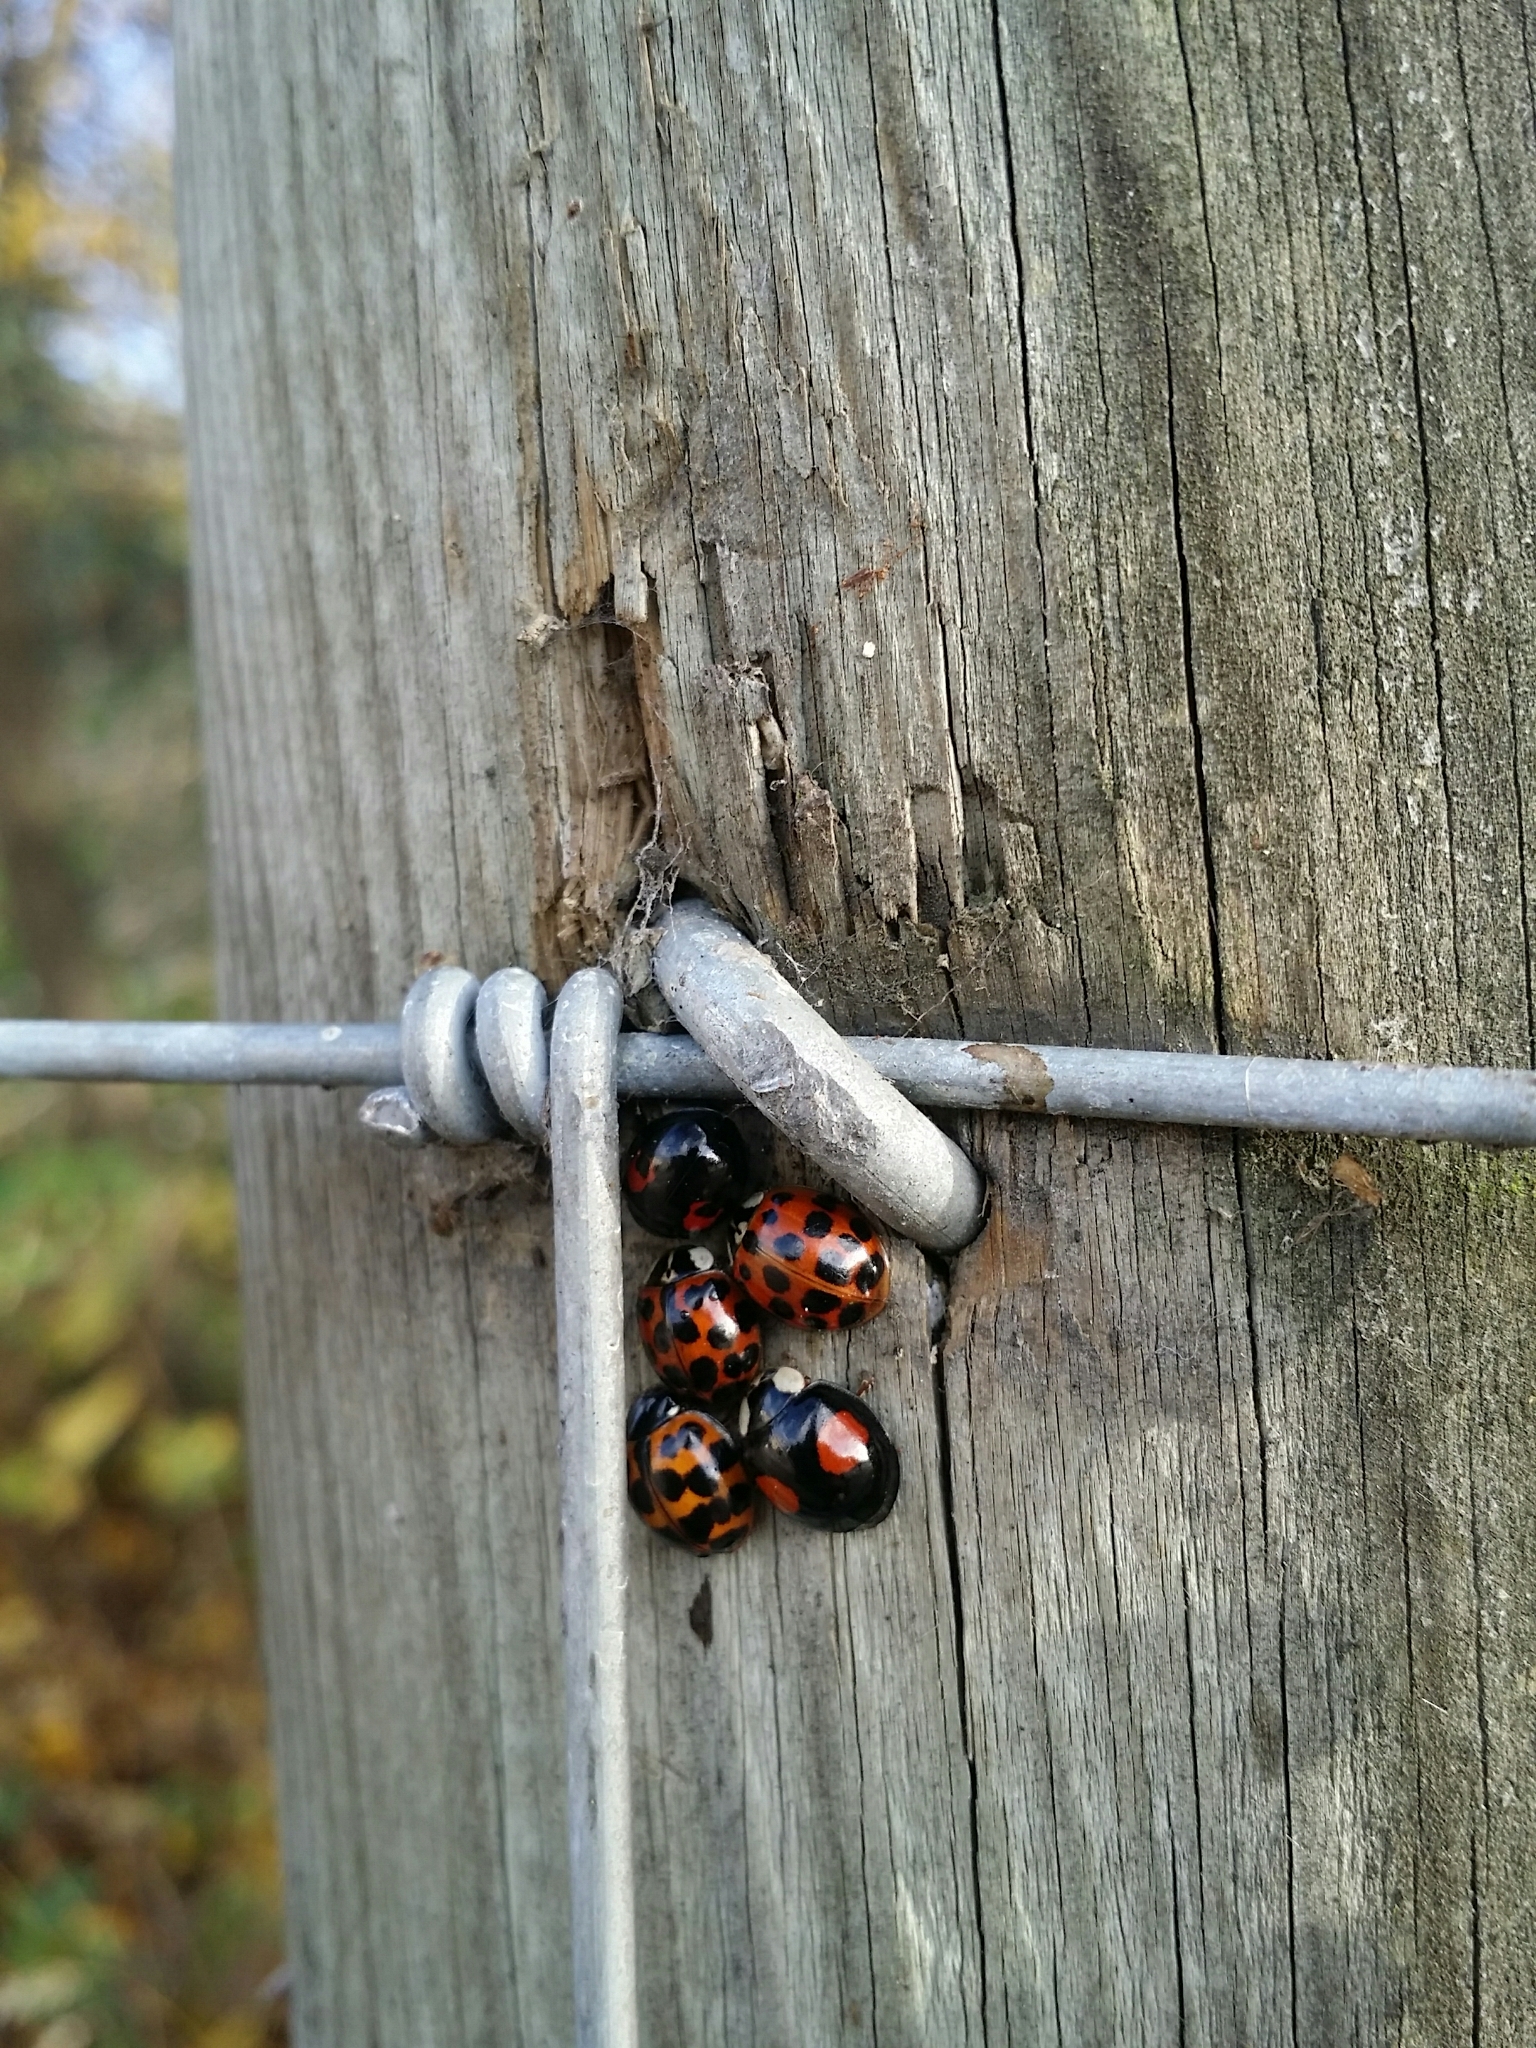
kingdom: Animalia
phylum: Arthropoda
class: Insecta
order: Coleoptera
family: Coccinellidae
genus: Harmonia
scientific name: Harmonia axyridis
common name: Harlequin ladybird
